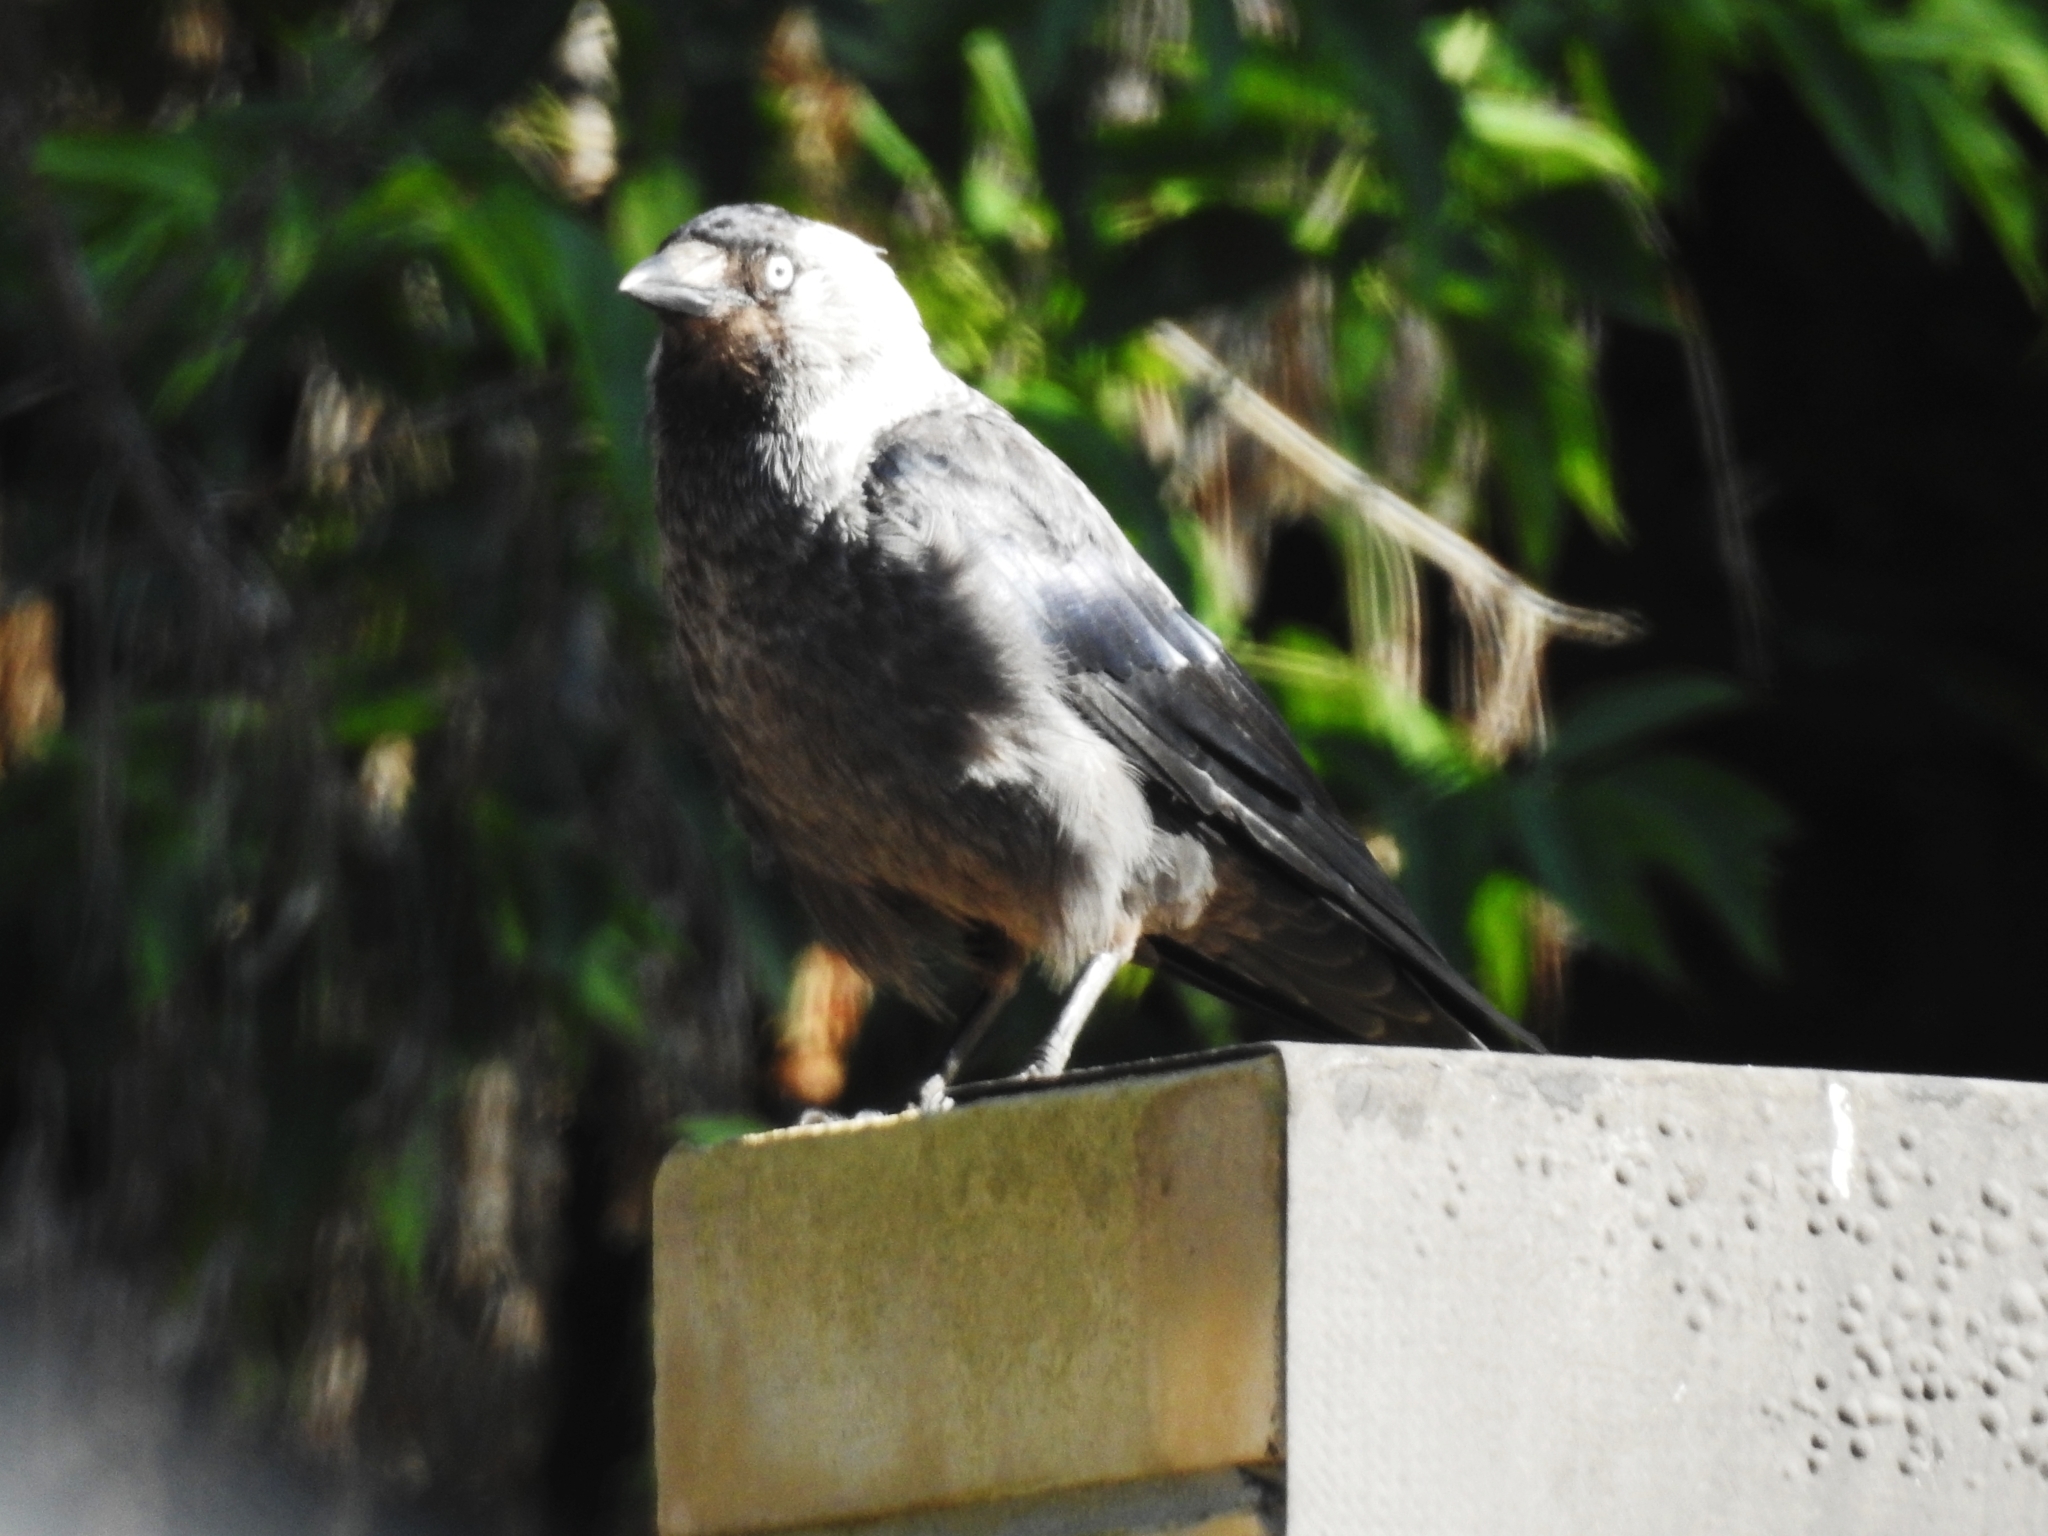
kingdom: Animalia
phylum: Chordata
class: Aves
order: Passeriformes
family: Corvidae
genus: Coloeus
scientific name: Coloeus monedula
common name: Western jackdaw
